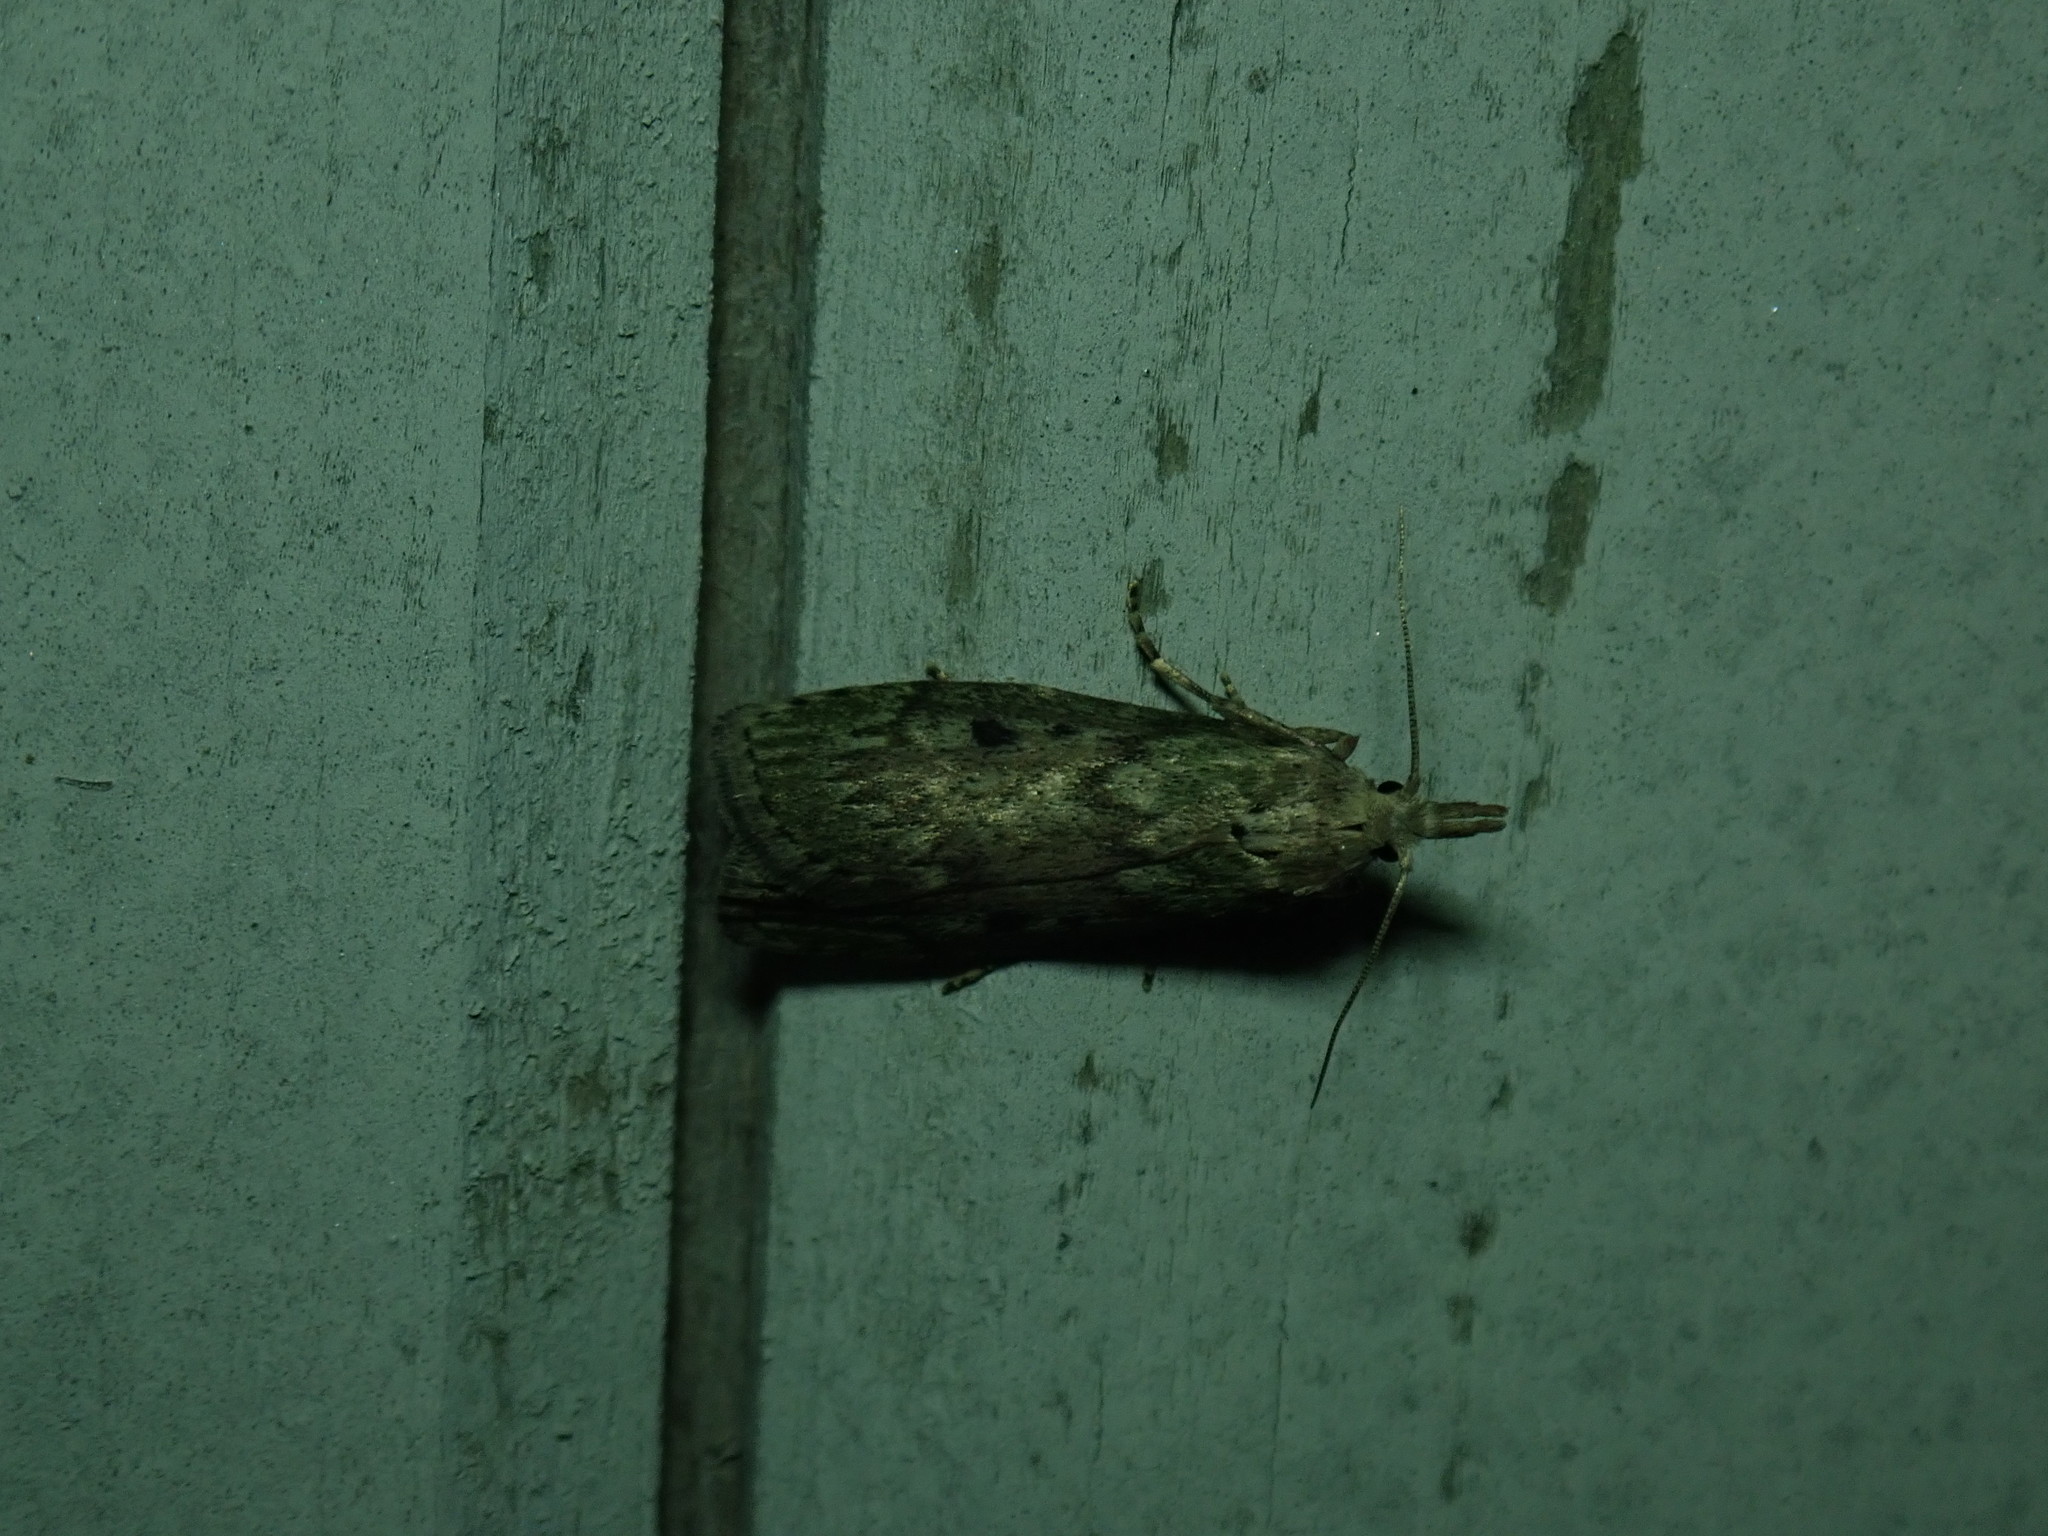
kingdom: Animalia
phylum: Arthropoda
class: Insecta
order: Lepidoptera
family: Pyralidae
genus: Aphomia
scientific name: Aphomia sociella
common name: Bee moth
